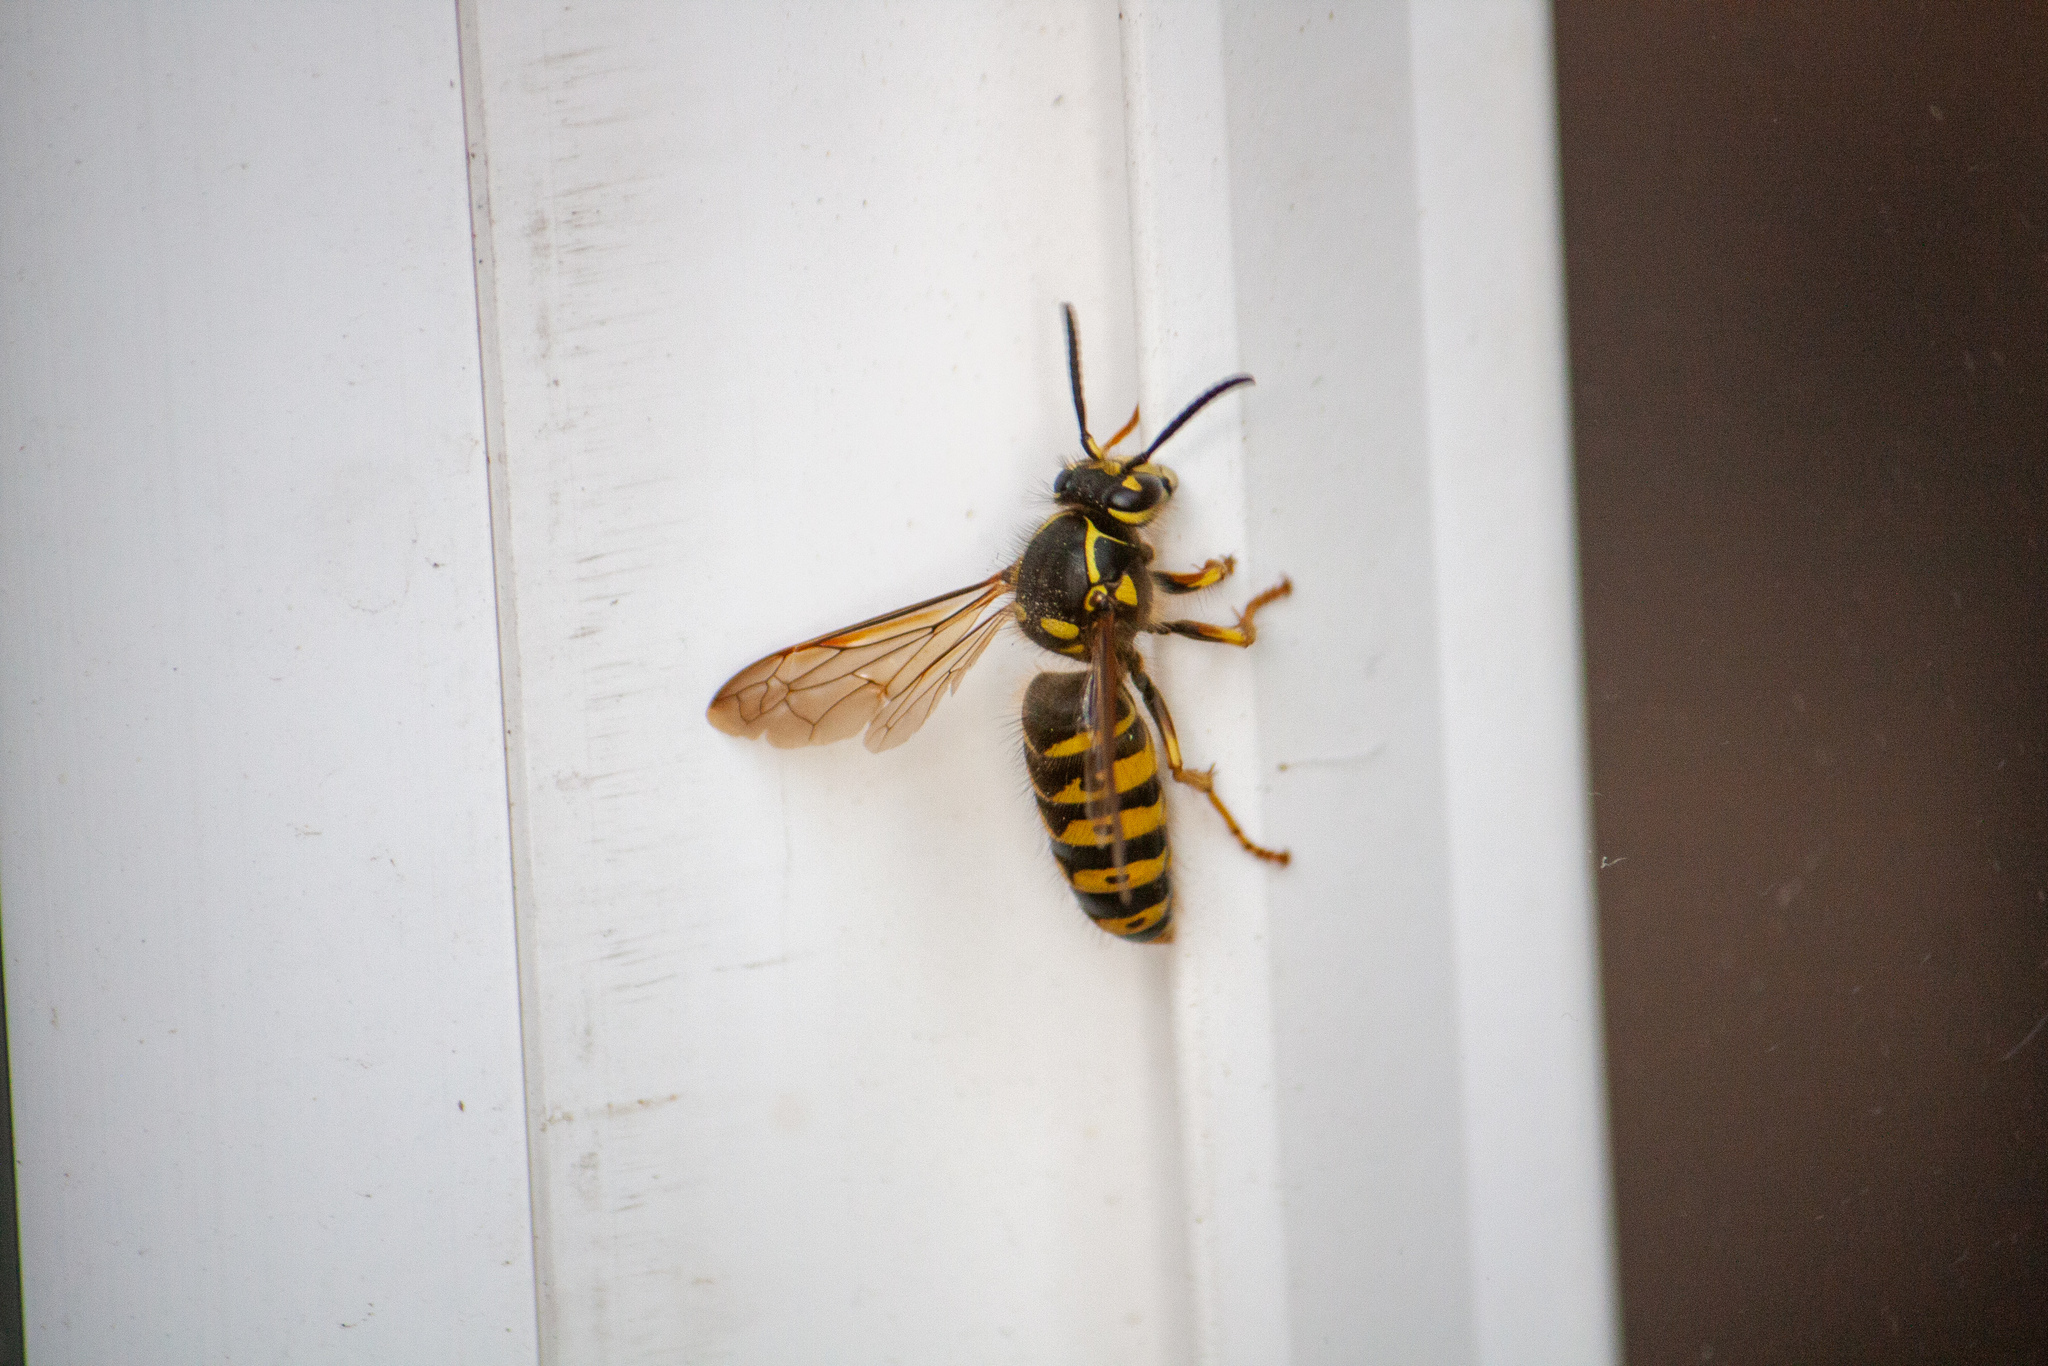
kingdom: Animalia
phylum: Arthropoda
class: Insecta
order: Hymenoptera
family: Vespidae
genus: Dolichovespula
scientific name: Dolichovespula arenaria
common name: Aerial yellowjacket
